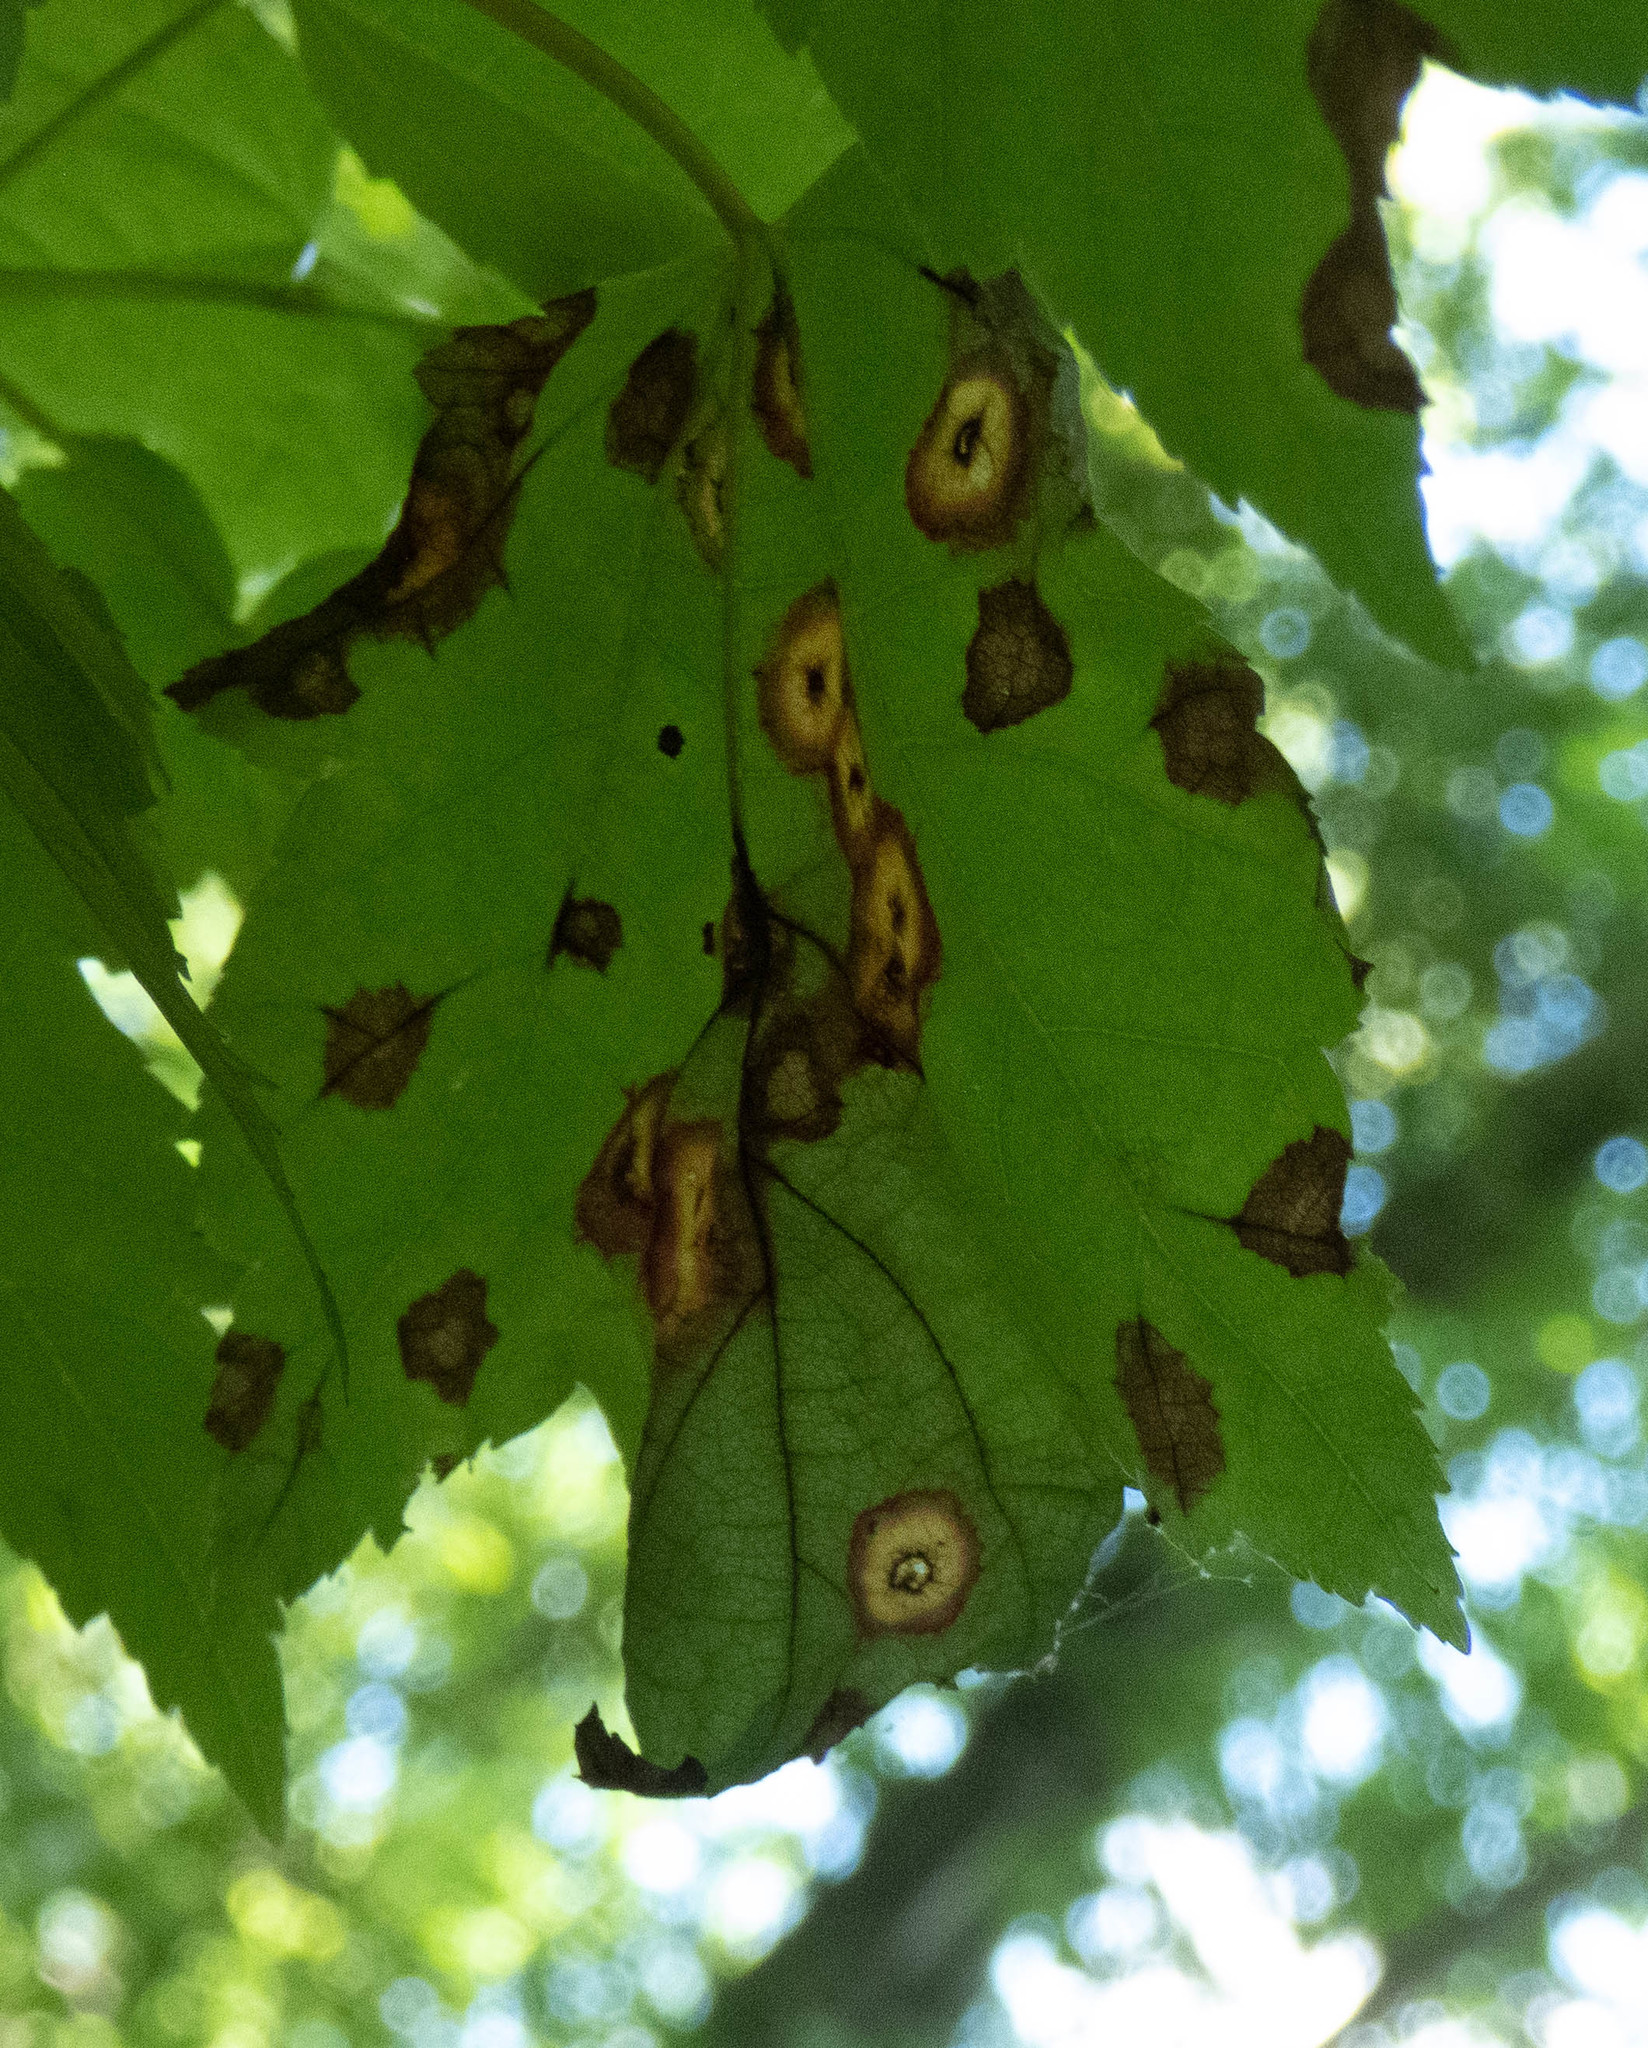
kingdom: Animalia
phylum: Arthropoda
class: Insecta
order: Diptera
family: Cecidomyiidae
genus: Acericecis
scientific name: Acericecis ocellaris
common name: Ocellate gall midge
